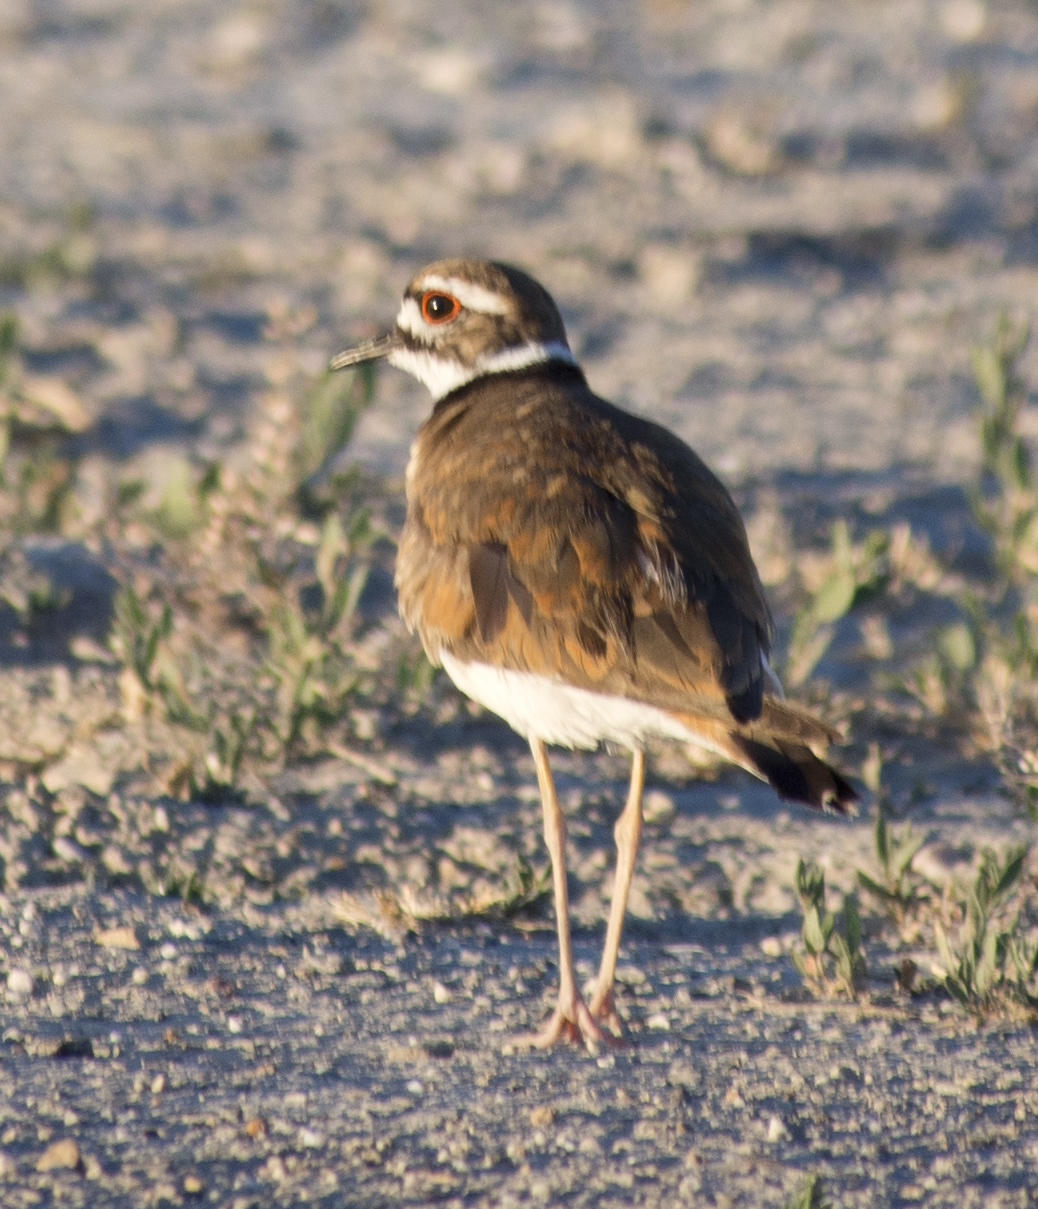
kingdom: Animalia
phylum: Chordata
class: Aves
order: Charadriiformes
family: Charadriidae
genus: Charadrius
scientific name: Charadrius vociferus
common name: Killdeer
